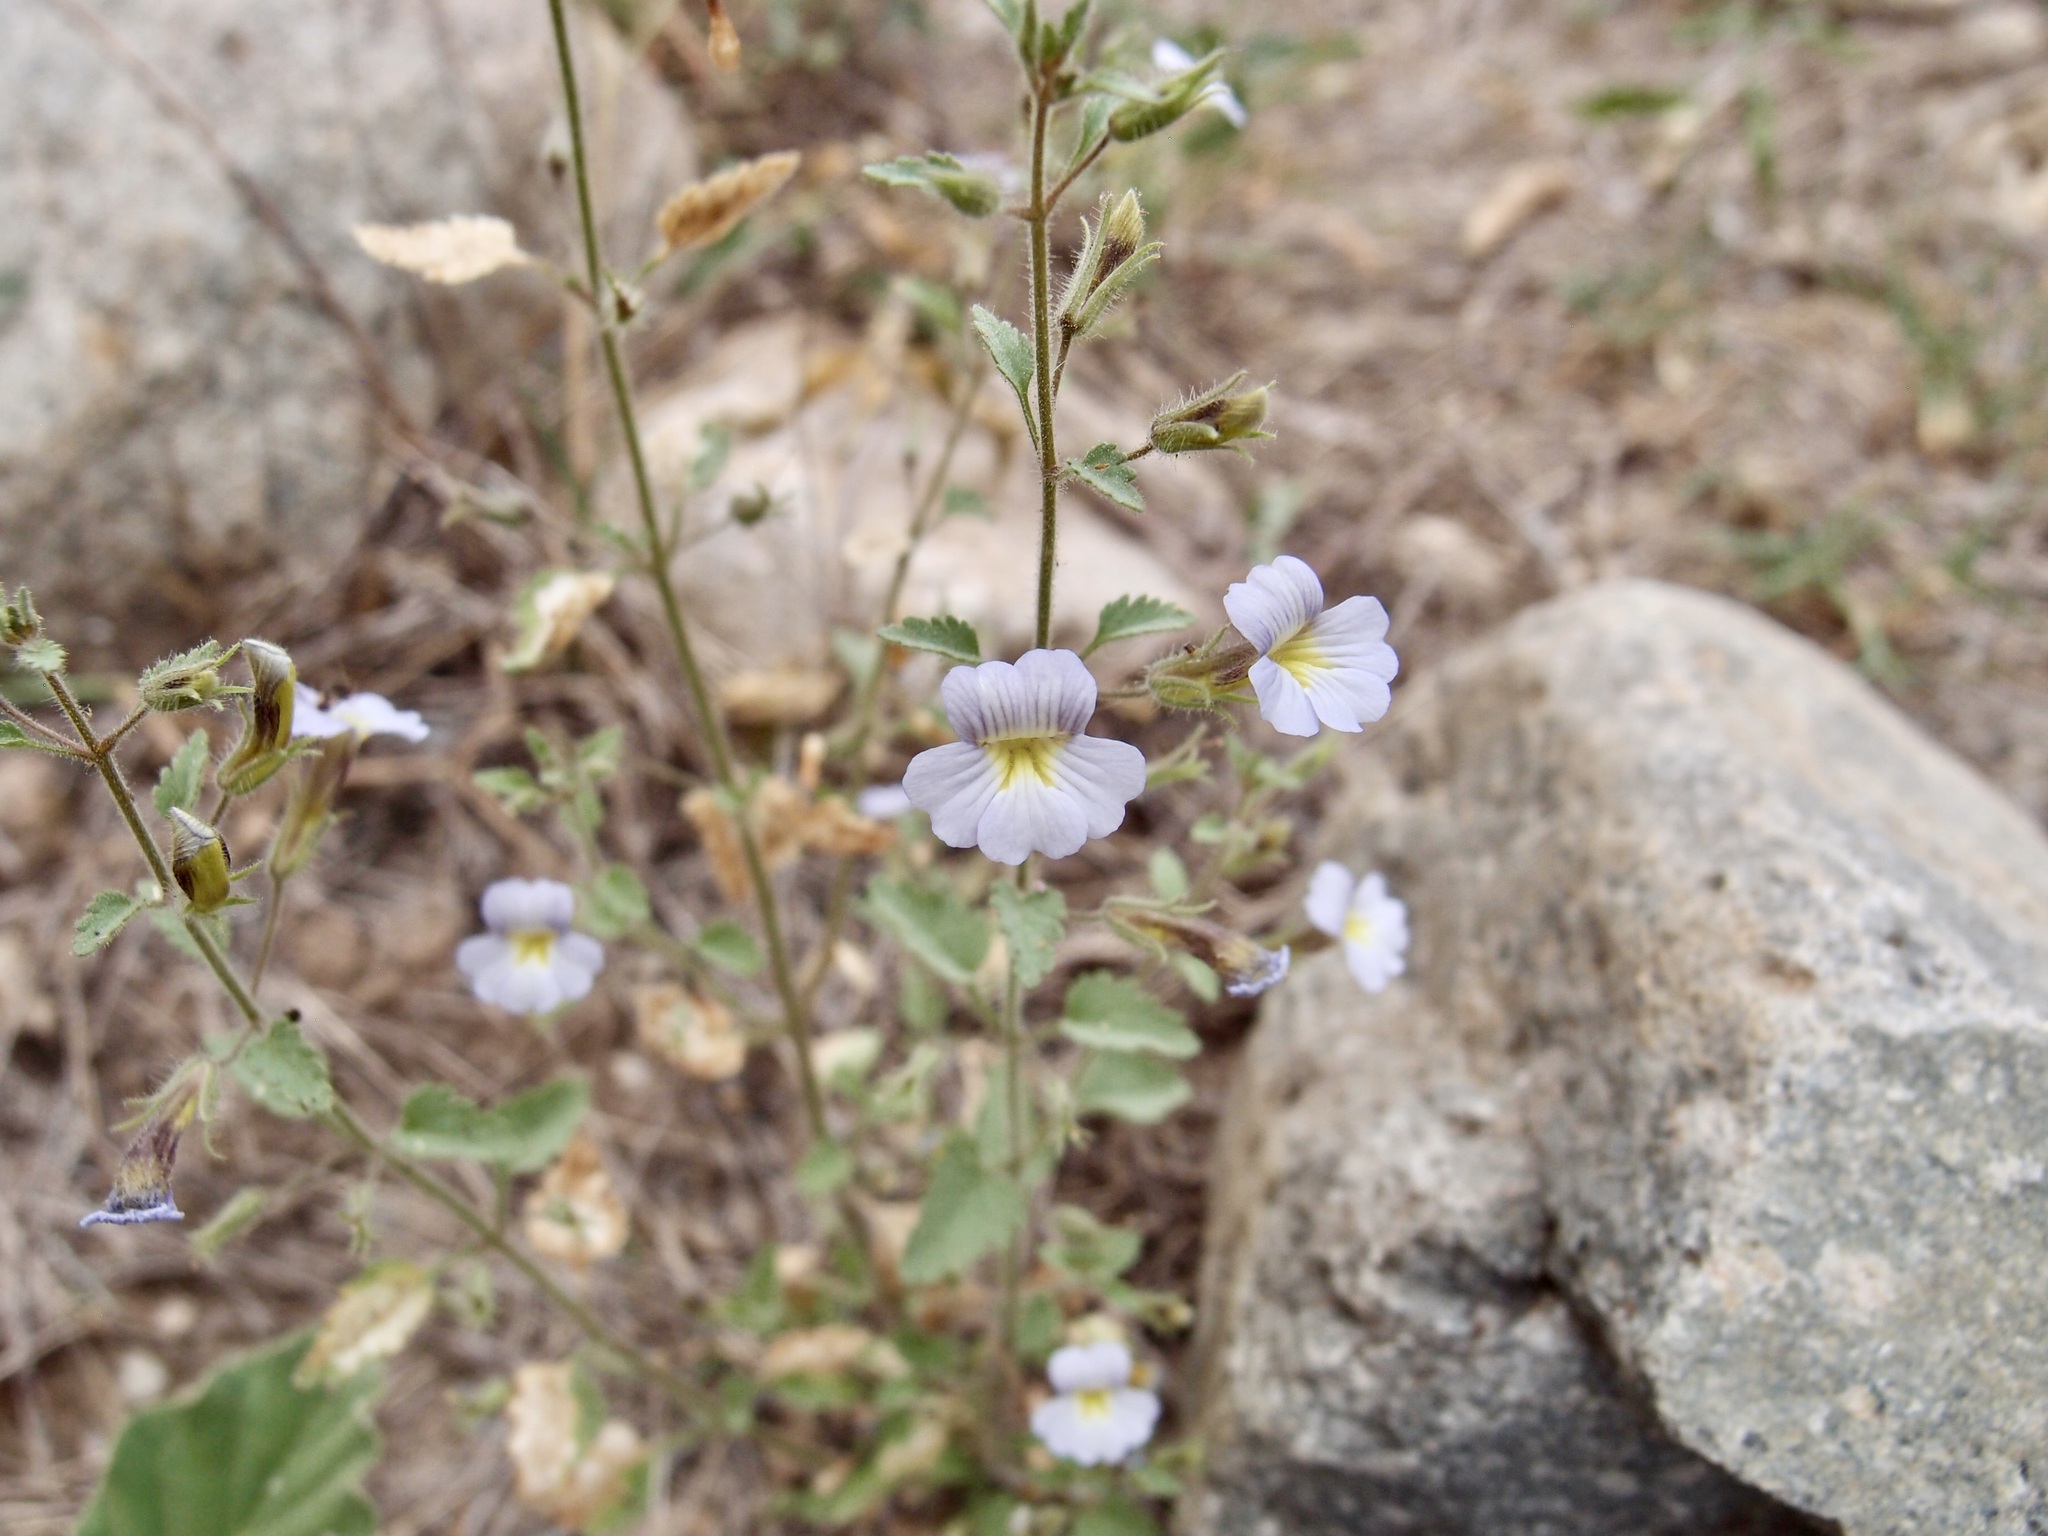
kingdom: Plantae
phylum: Tracheophyta
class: Magnoliopsida
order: Lamiales
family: Plantaginaceae
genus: Stemodia
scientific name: Stemodia palmeri
